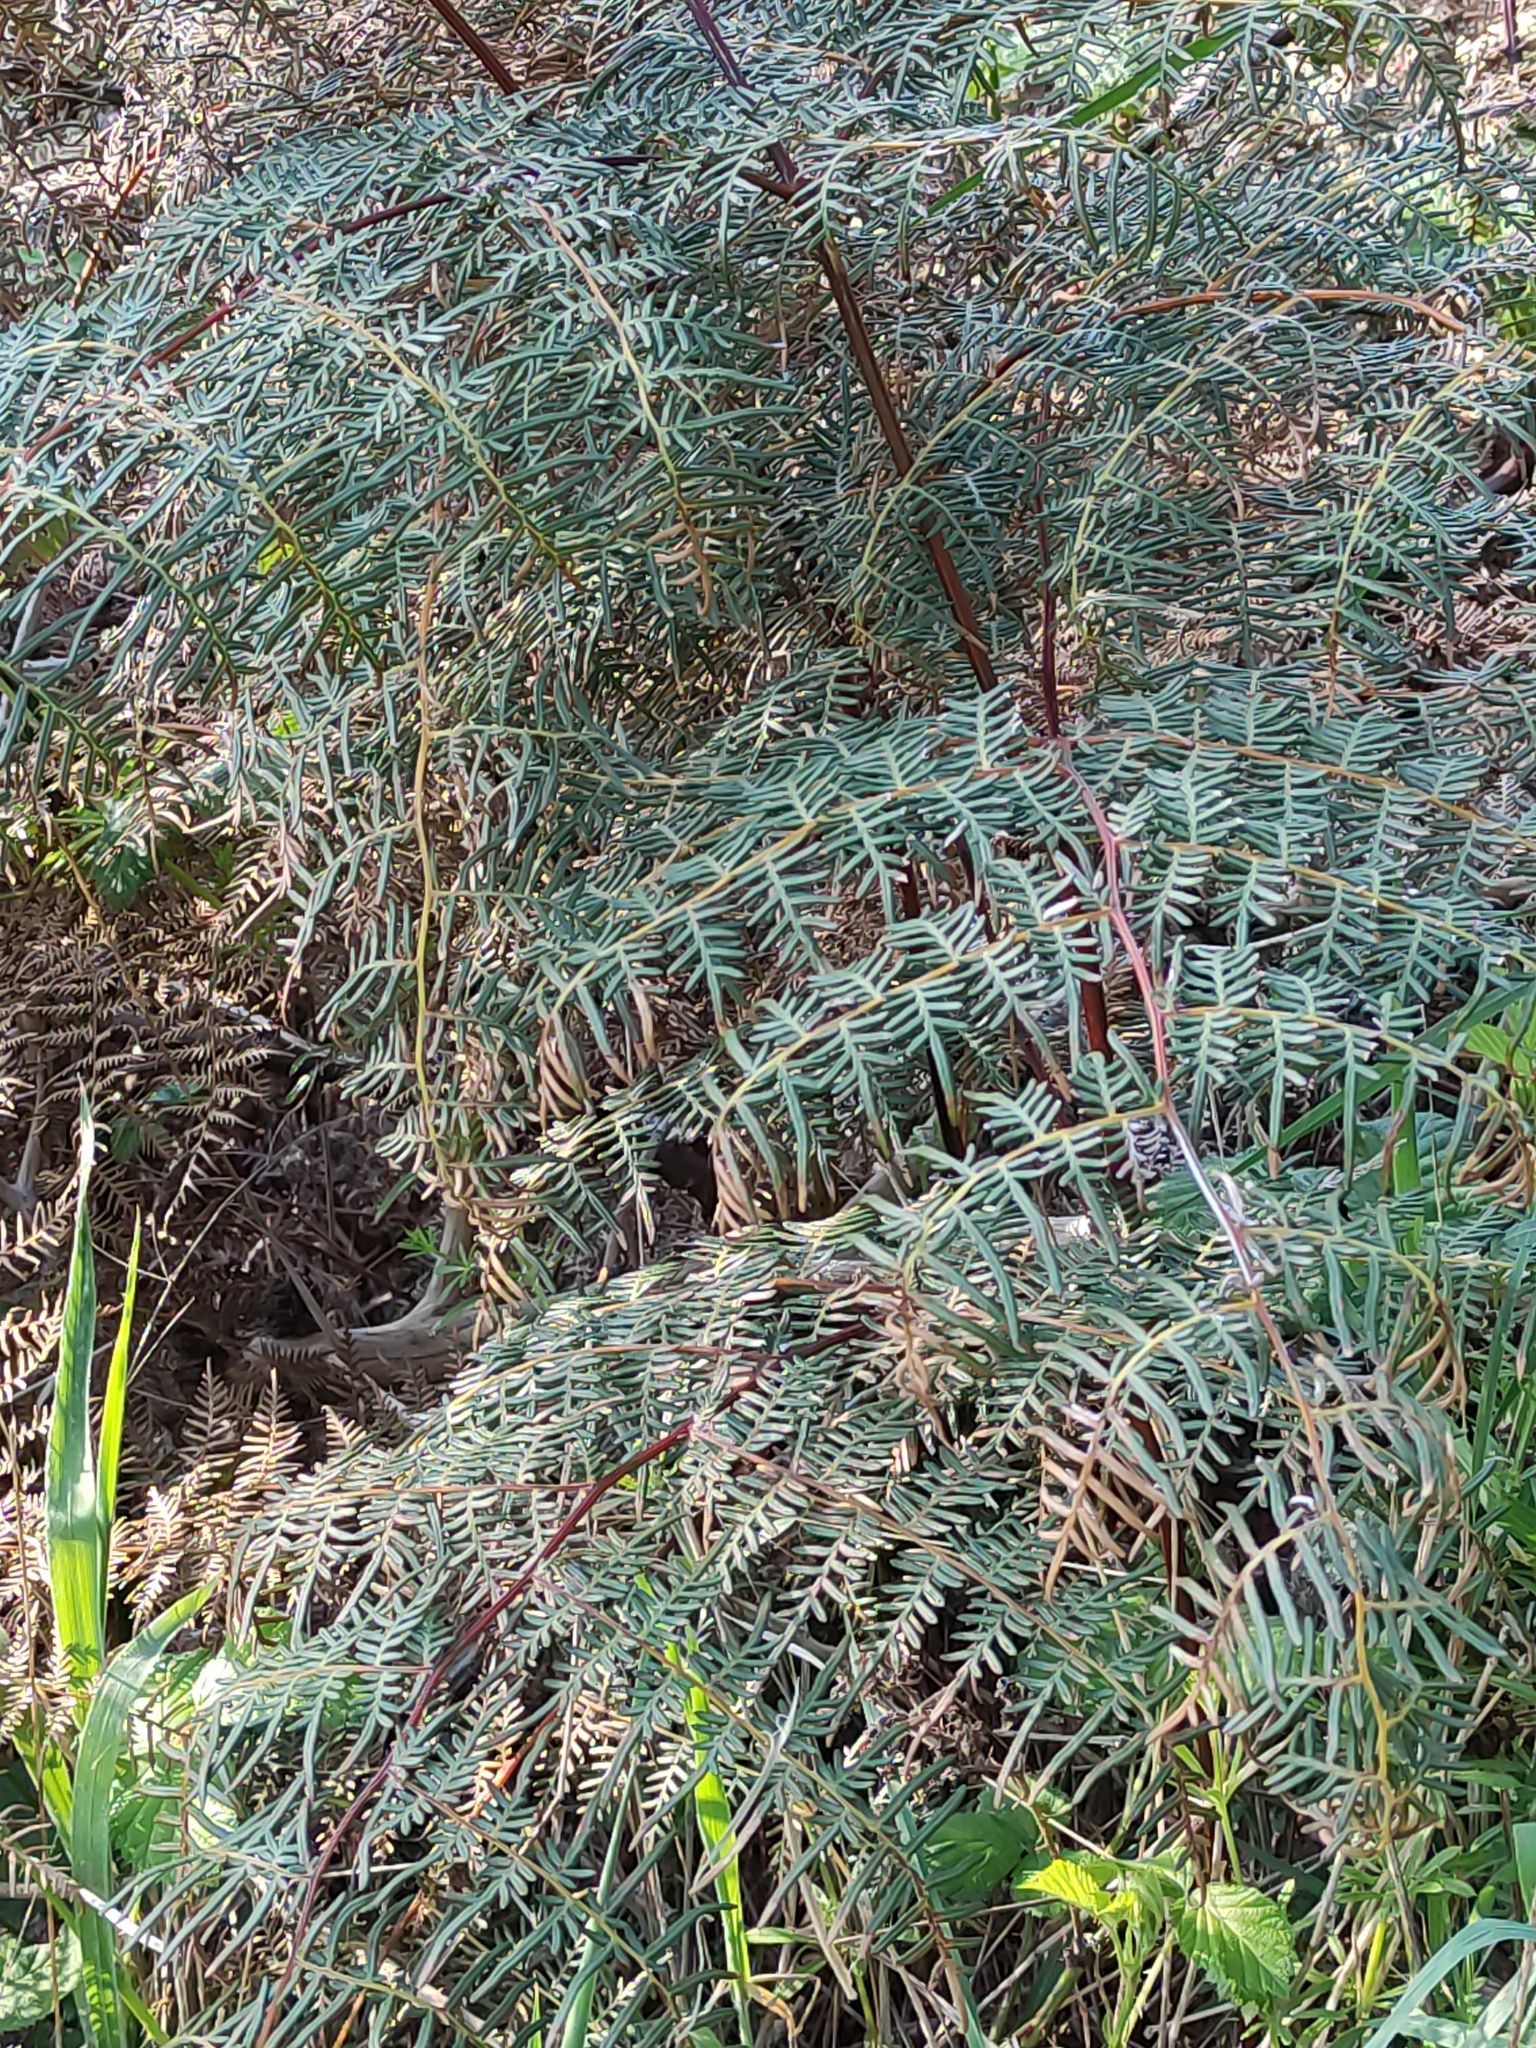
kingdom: Plantae
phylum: Tracheophyta
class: Polypodiopsida
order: Polypodiales
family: Dennstaedtiaceae
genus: Pteridium
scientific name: Pteridium esculentum
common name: Bracken fern
